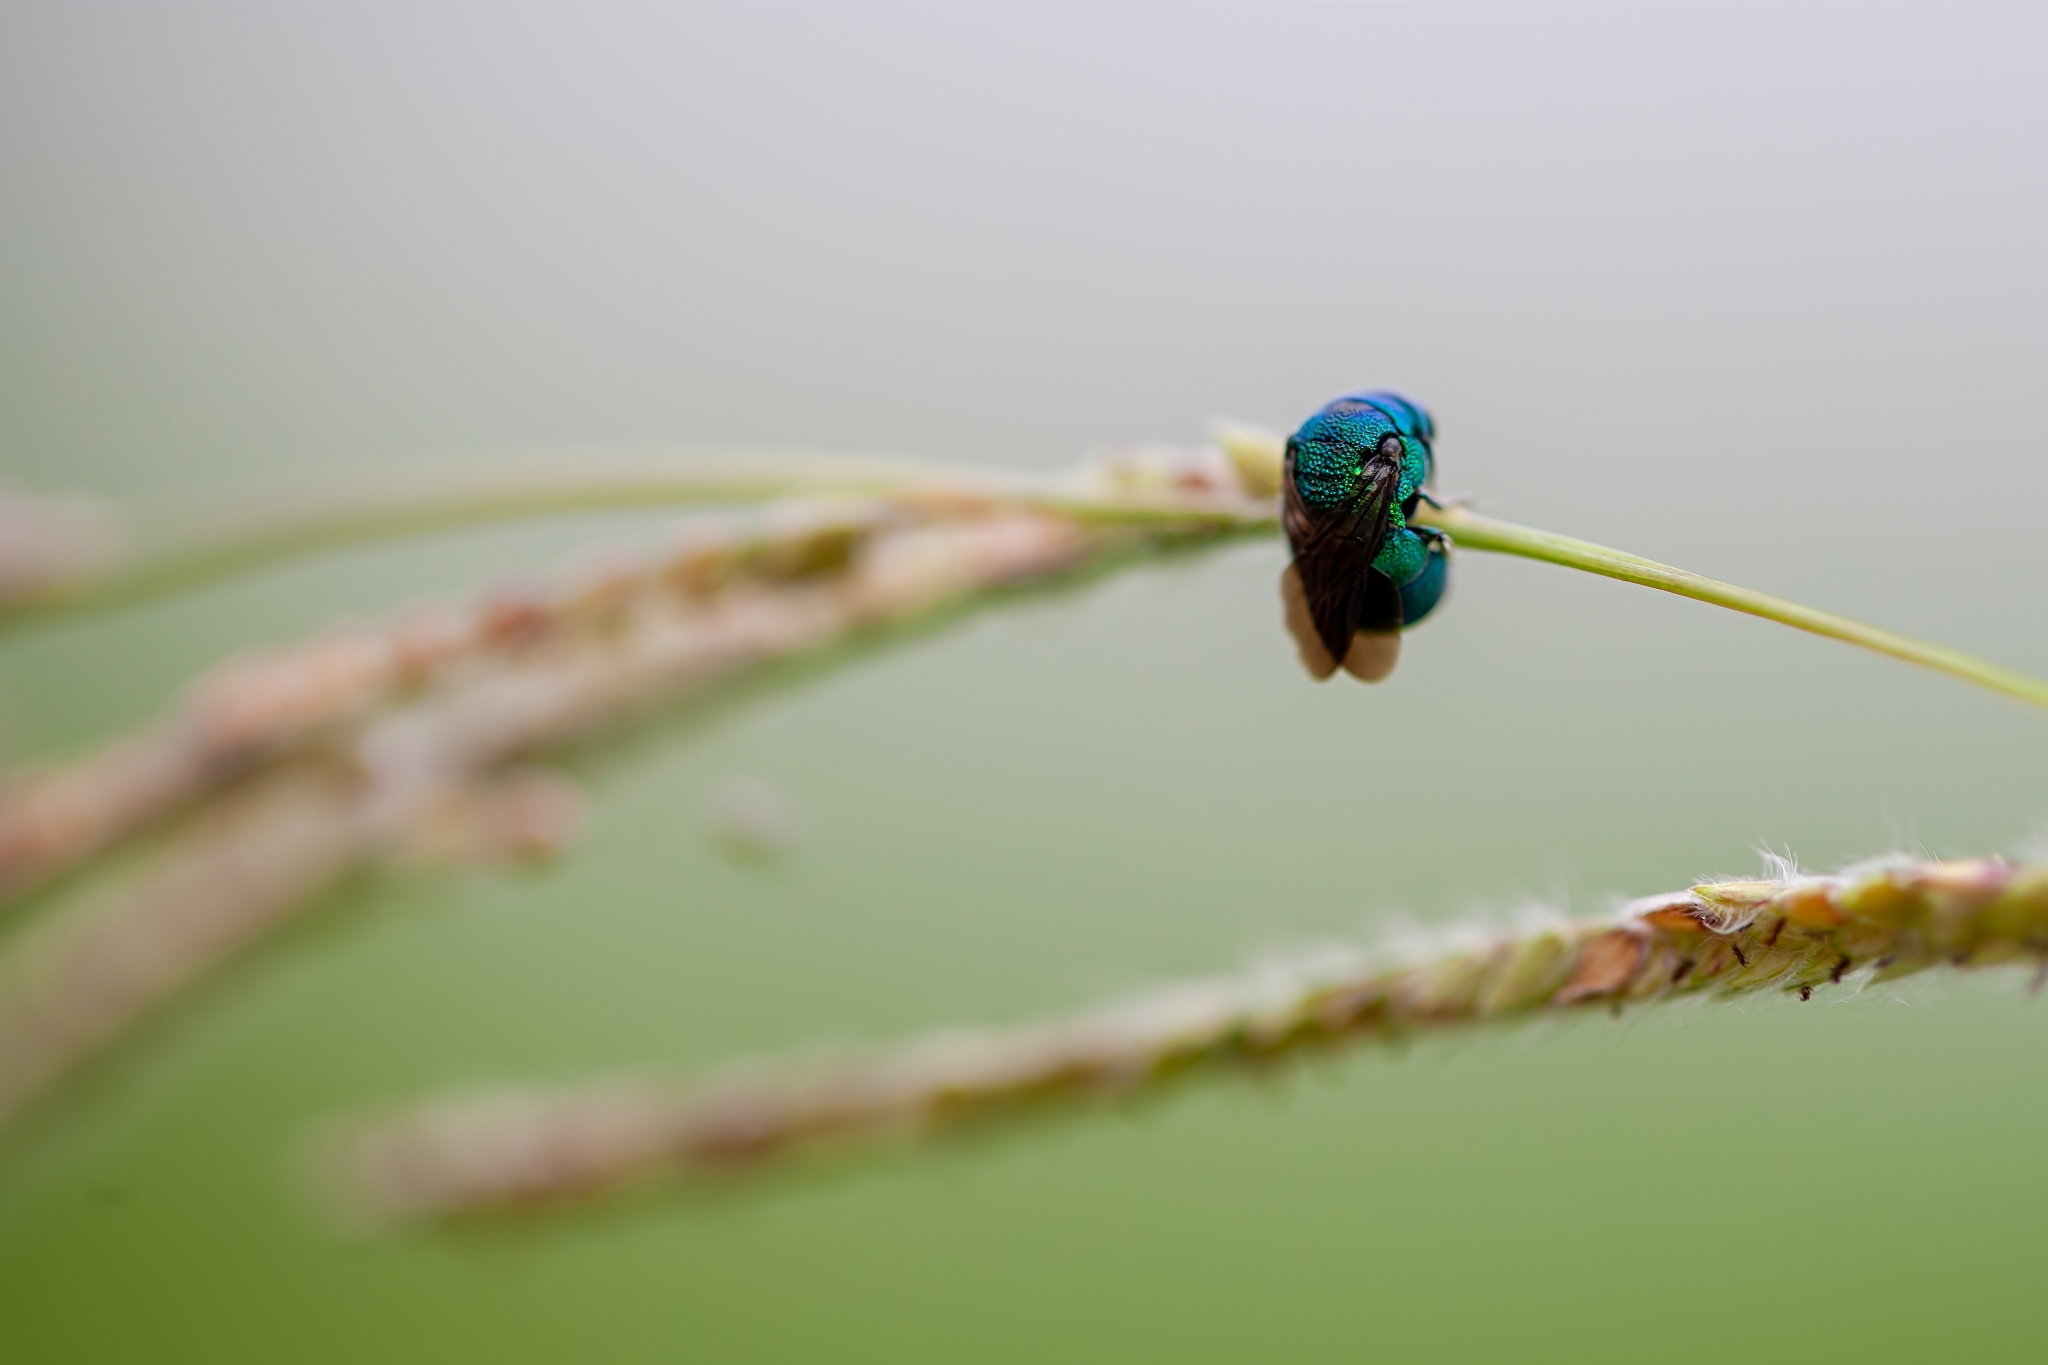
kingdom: Animalia
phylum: Arthropoda
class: Insecta
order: Hymenoptera
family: Chrysididae
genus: Holopyga
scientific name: Holopyga
